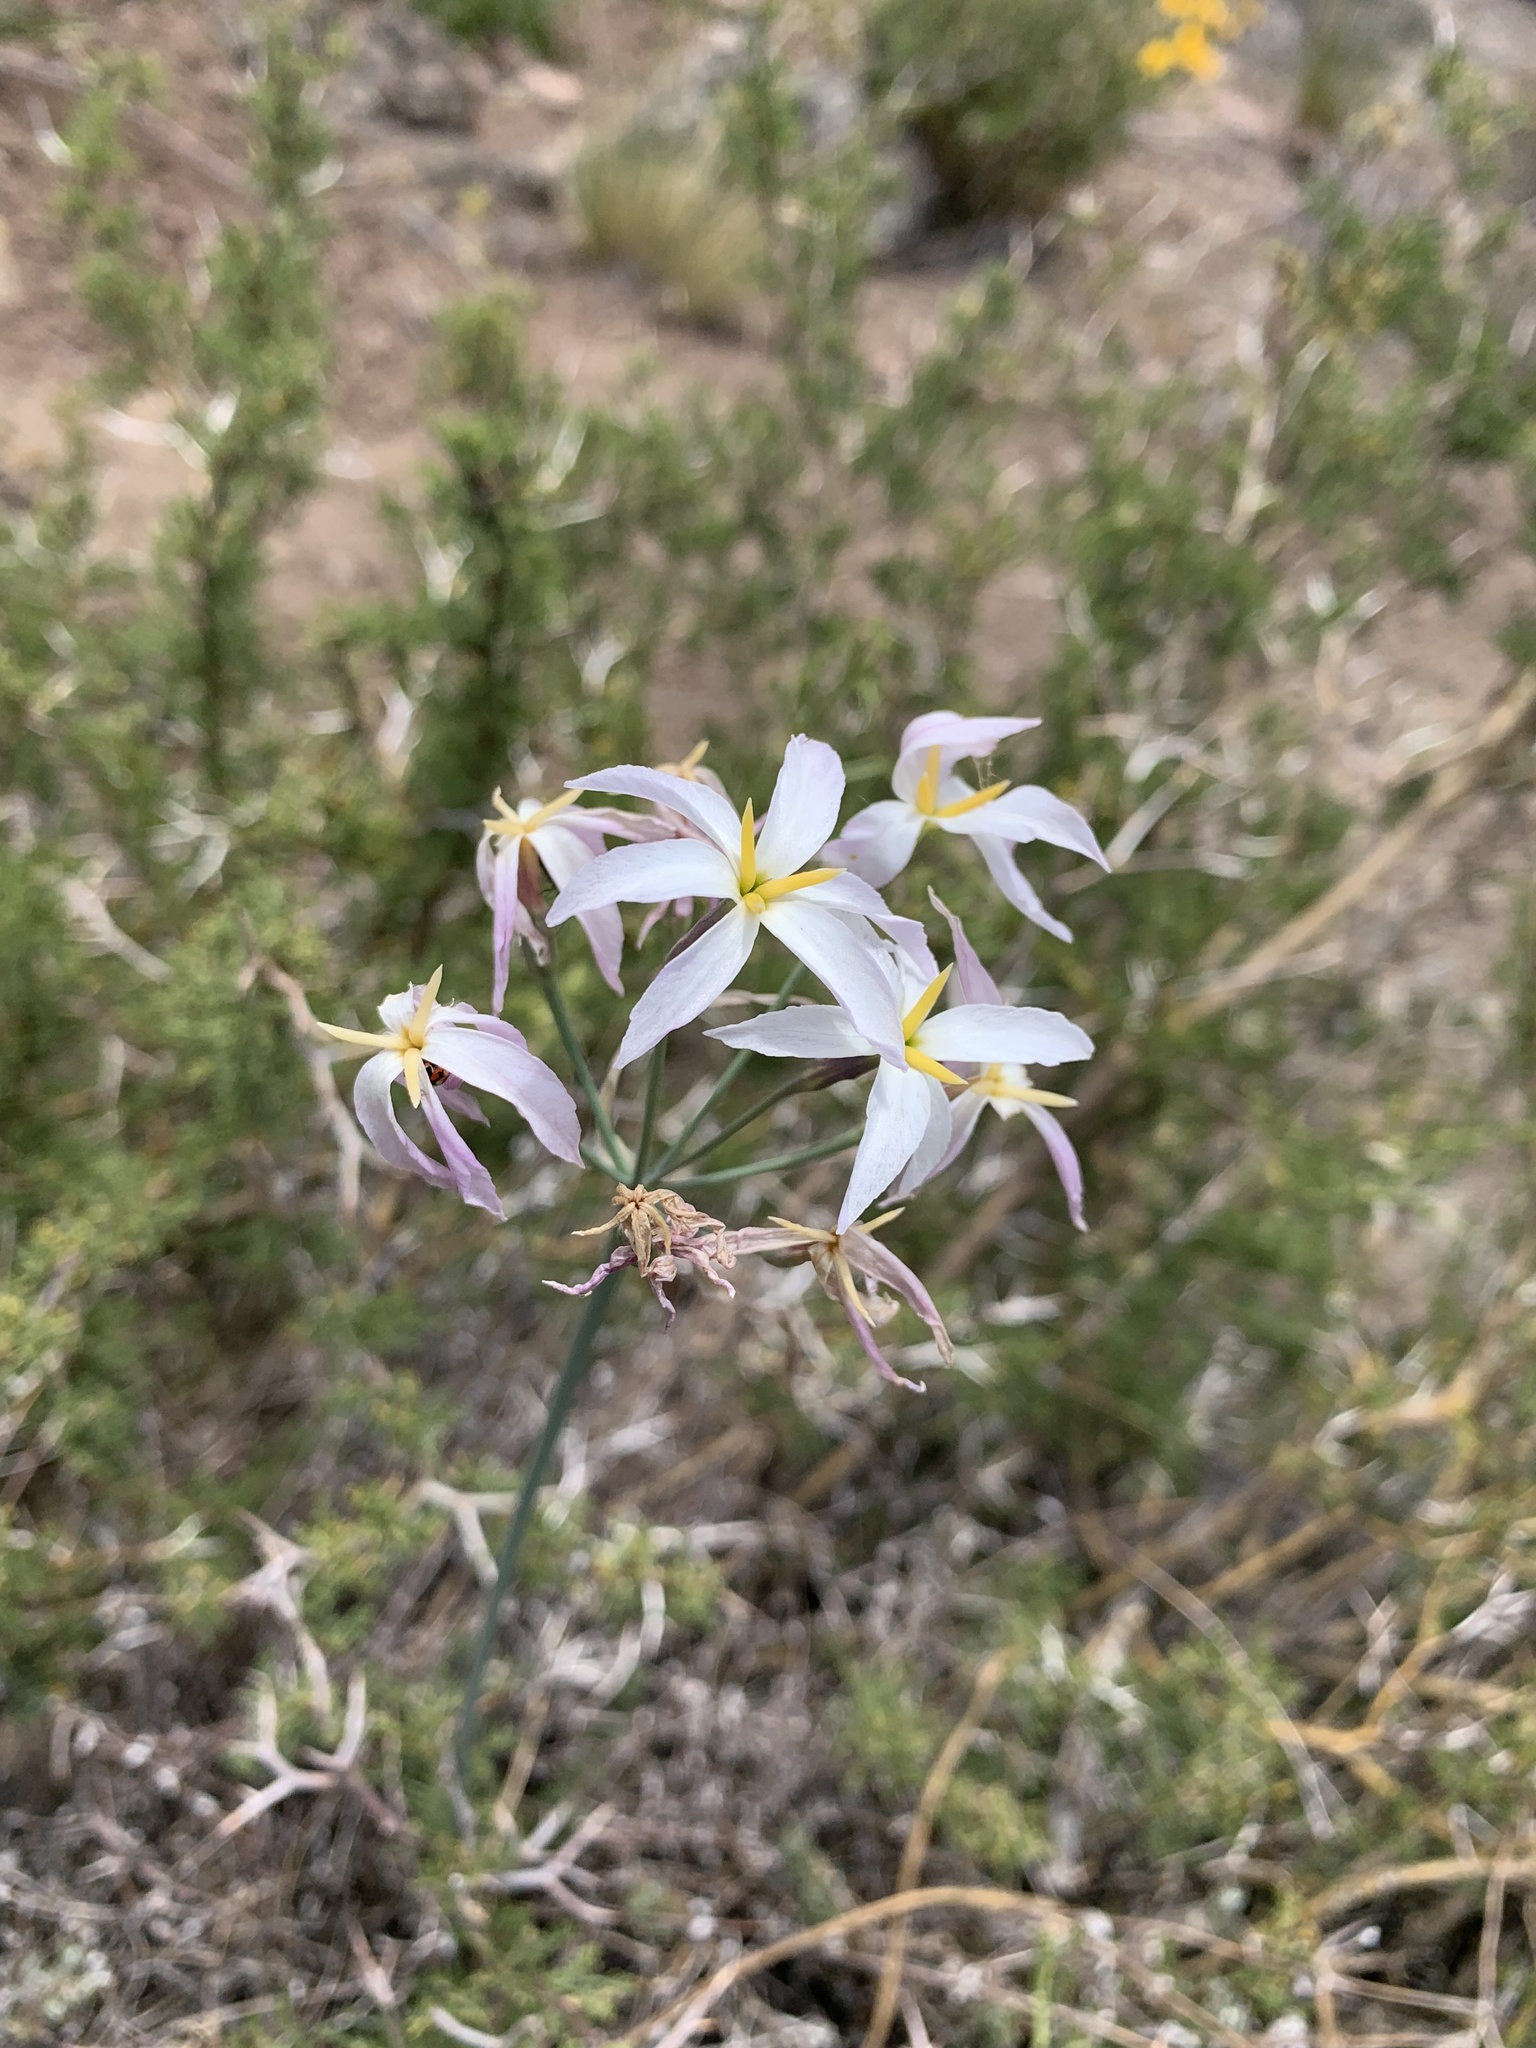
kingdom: Plantae
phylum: Tracheophyta
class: Liliopsida
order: Asparagales
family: Amaryllidaceae
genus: Leucocoryne
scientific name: Leucocoryne ixioides
